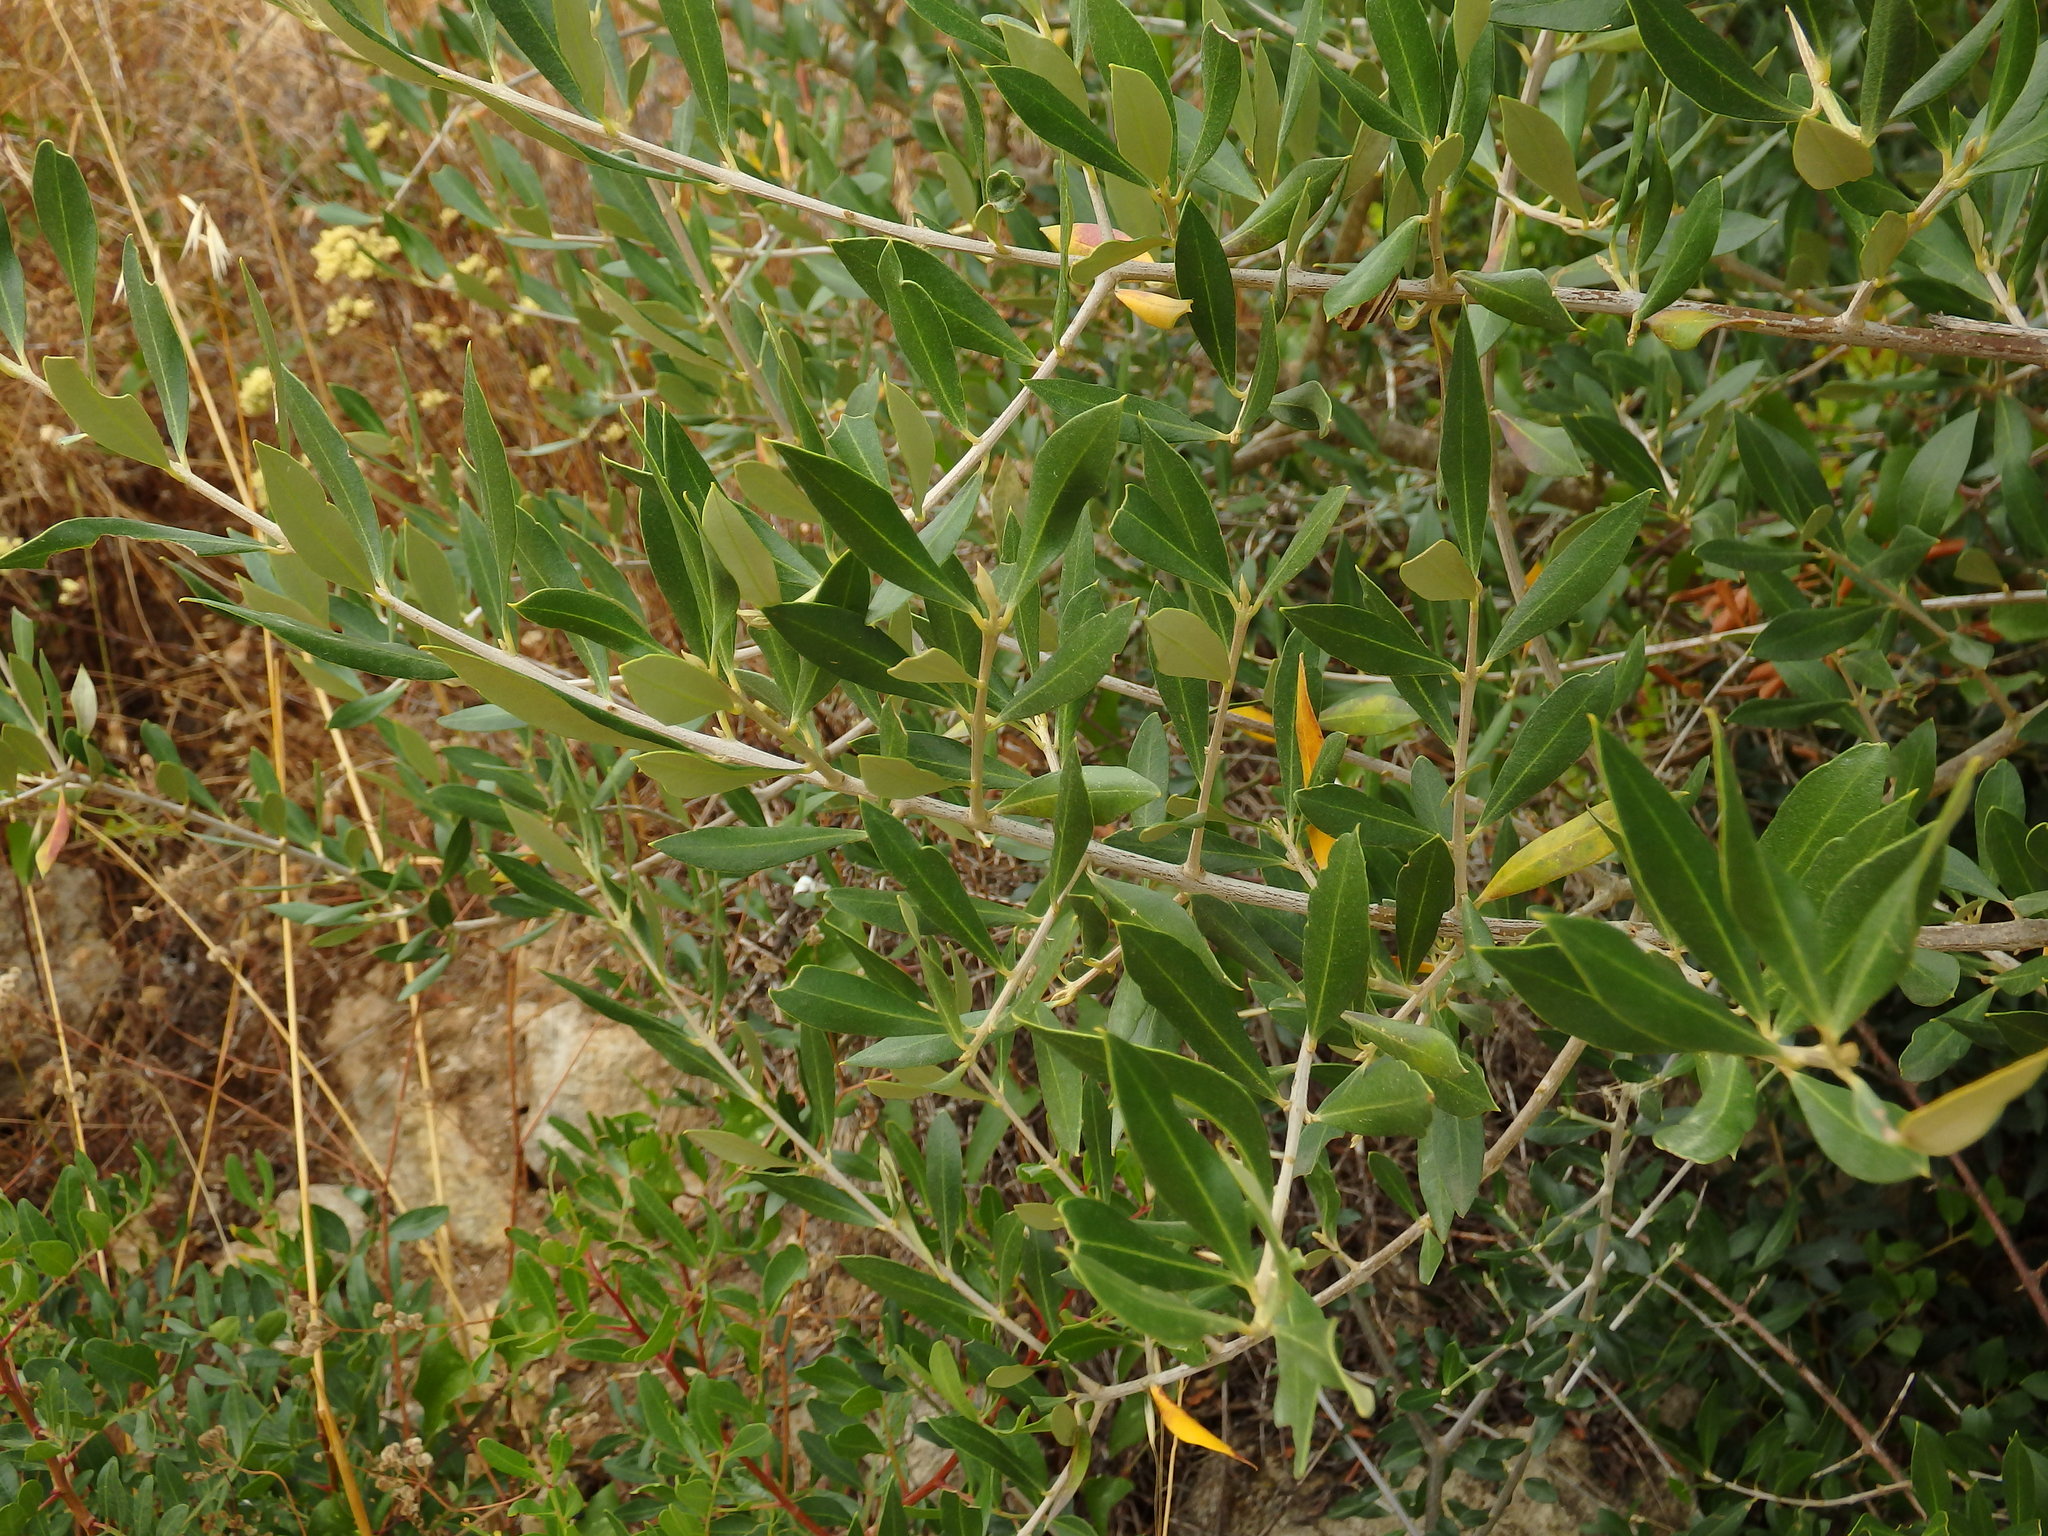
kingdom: Plantae
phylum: Tracheophyta
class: Magnoliopsida
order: Lamiales
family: Oleaceae
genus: Olea
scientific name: Olea europaea
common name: Olive
